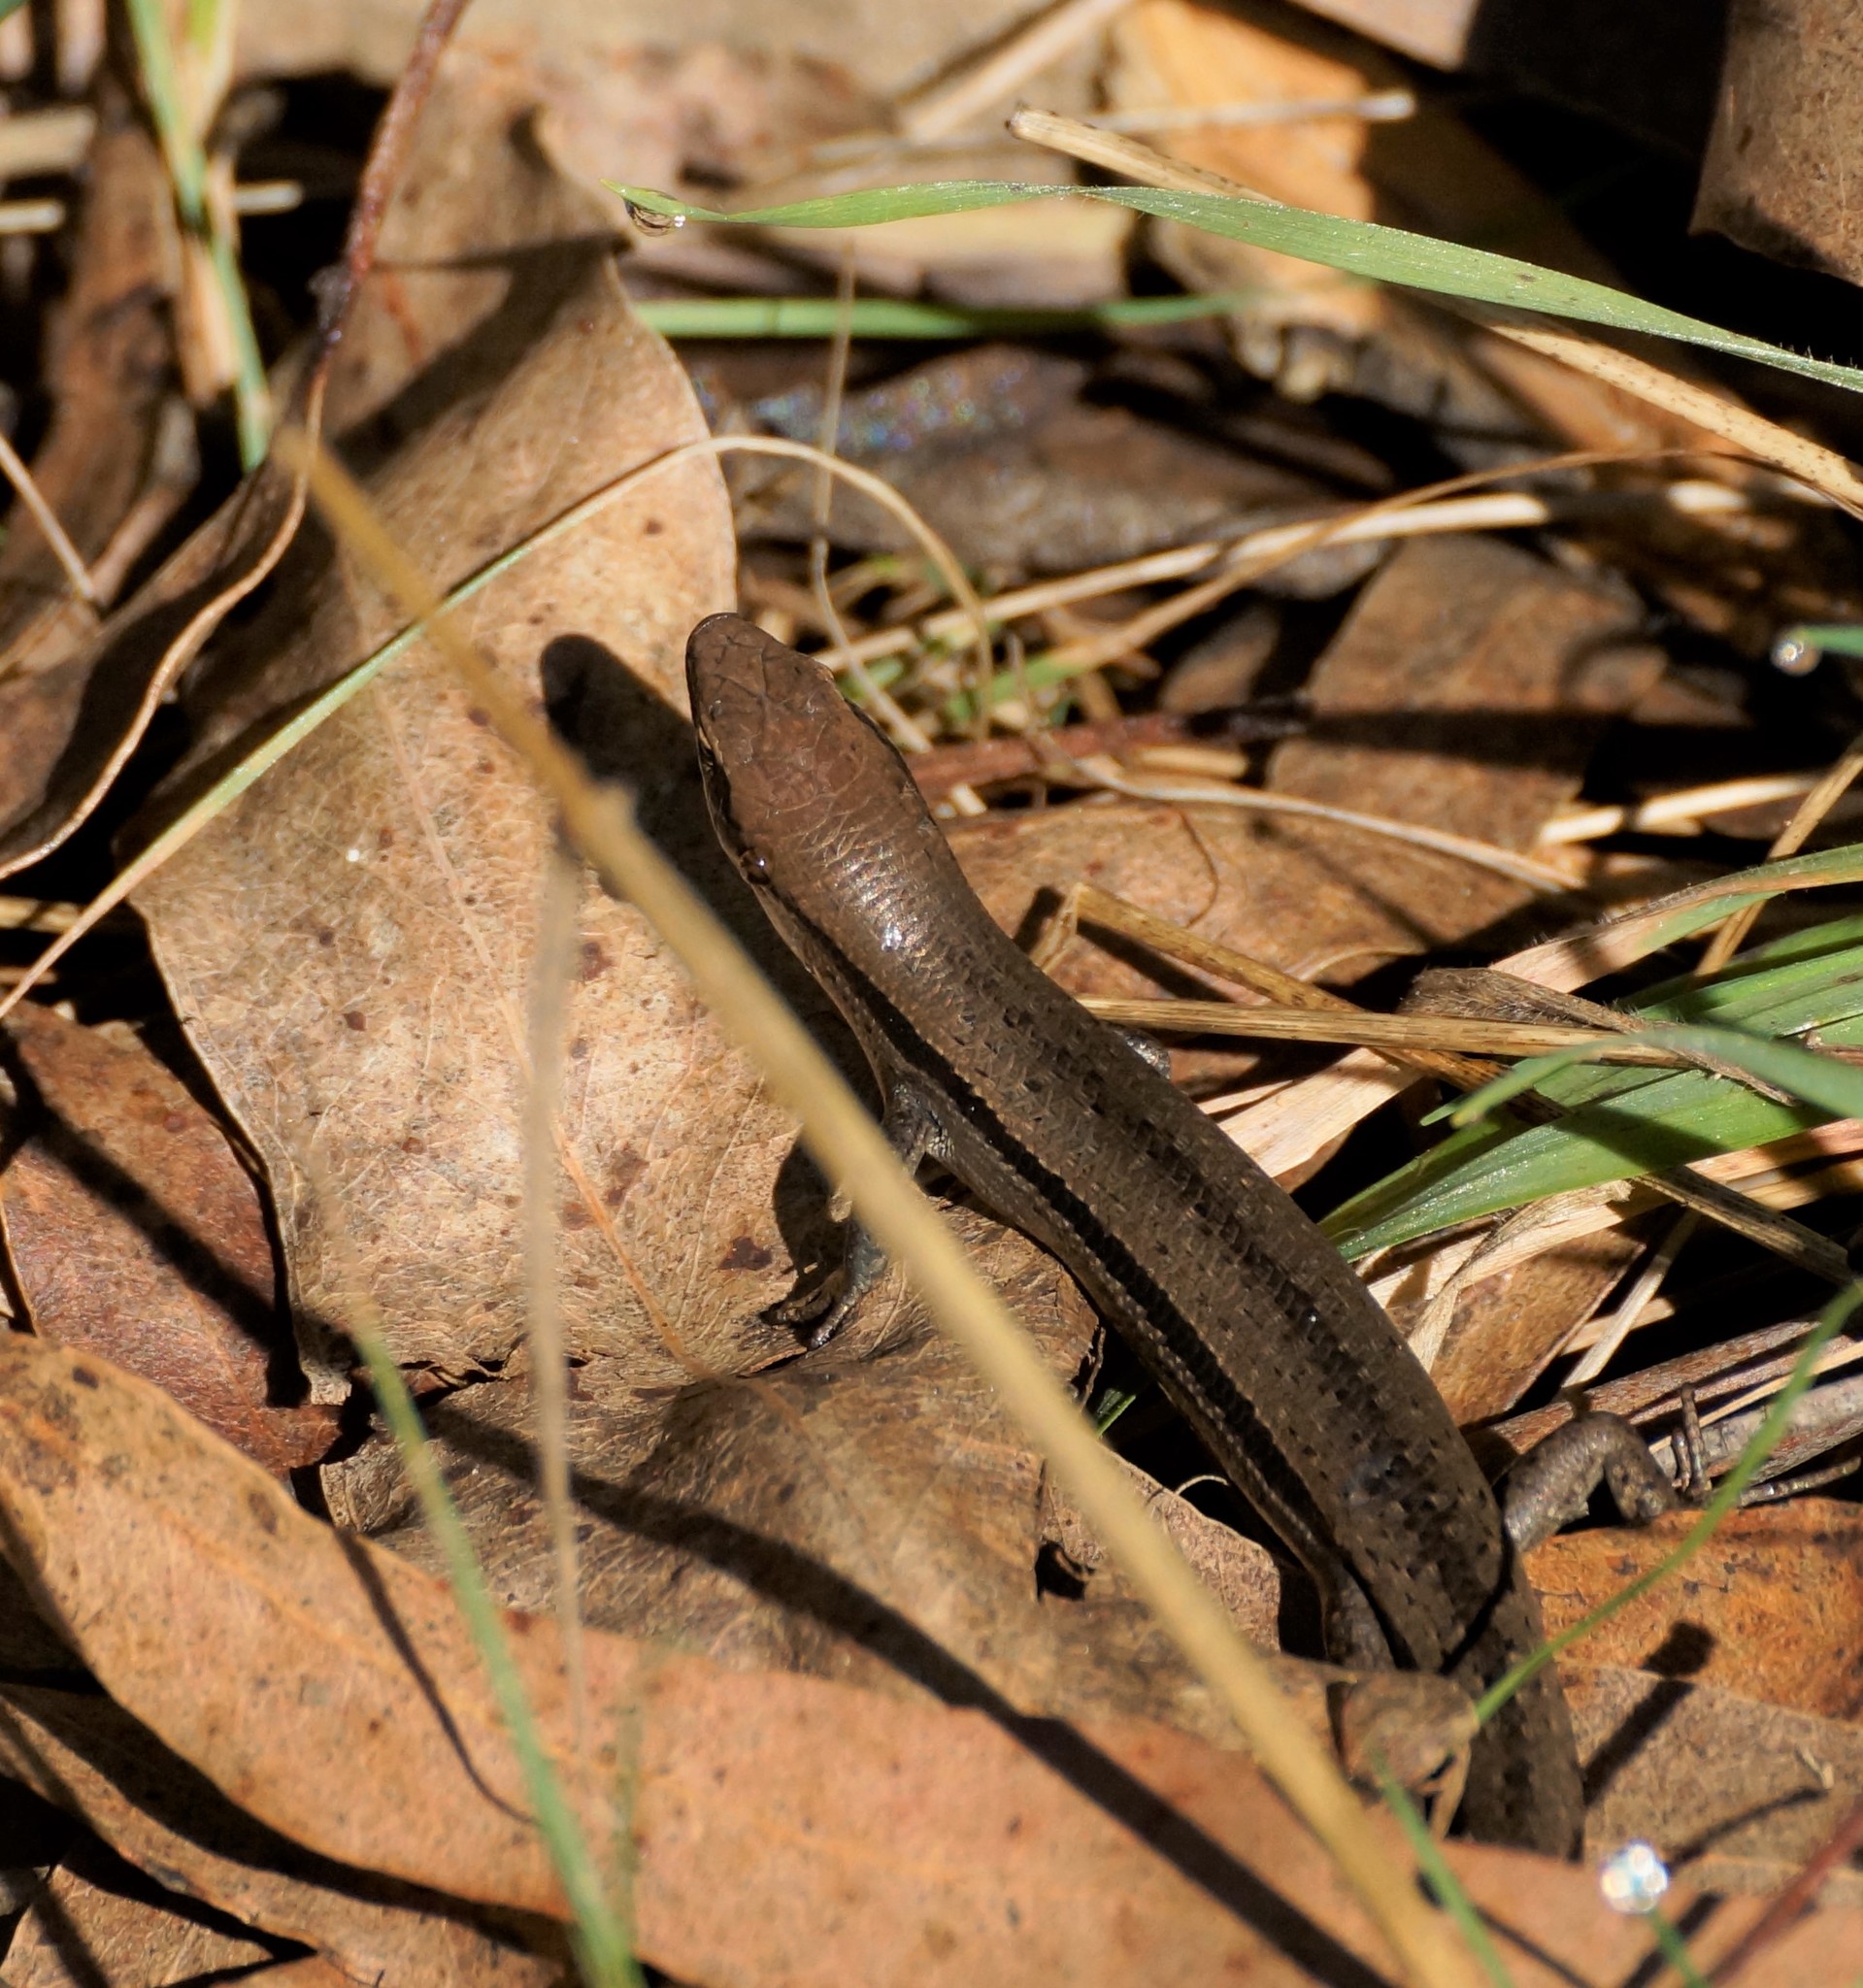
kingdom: Animalia
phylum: Chordata
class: Squamata
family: Scincidae
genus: Lampropholis
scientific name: Lampropholis guichenoti
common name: Garden skink
